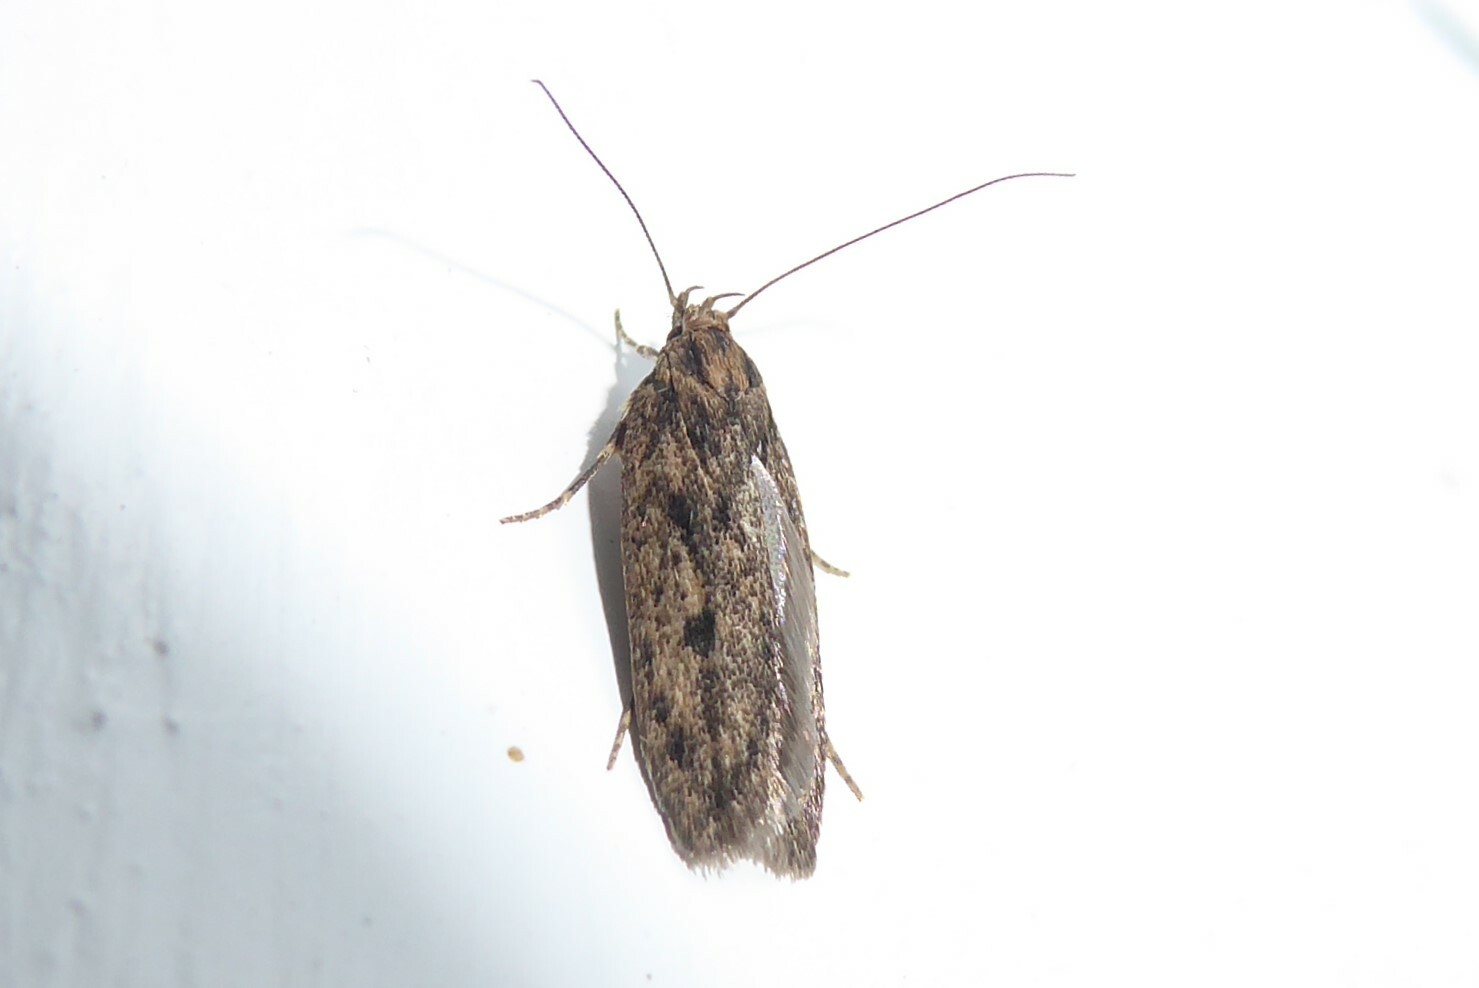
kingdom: Animalia
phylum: Arthropoda
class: Insecta
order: Lepidoptera
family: Oecophoridae
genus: Hofmannophila
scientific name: Hofmannophila pseudospretella
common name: Brown house moth
